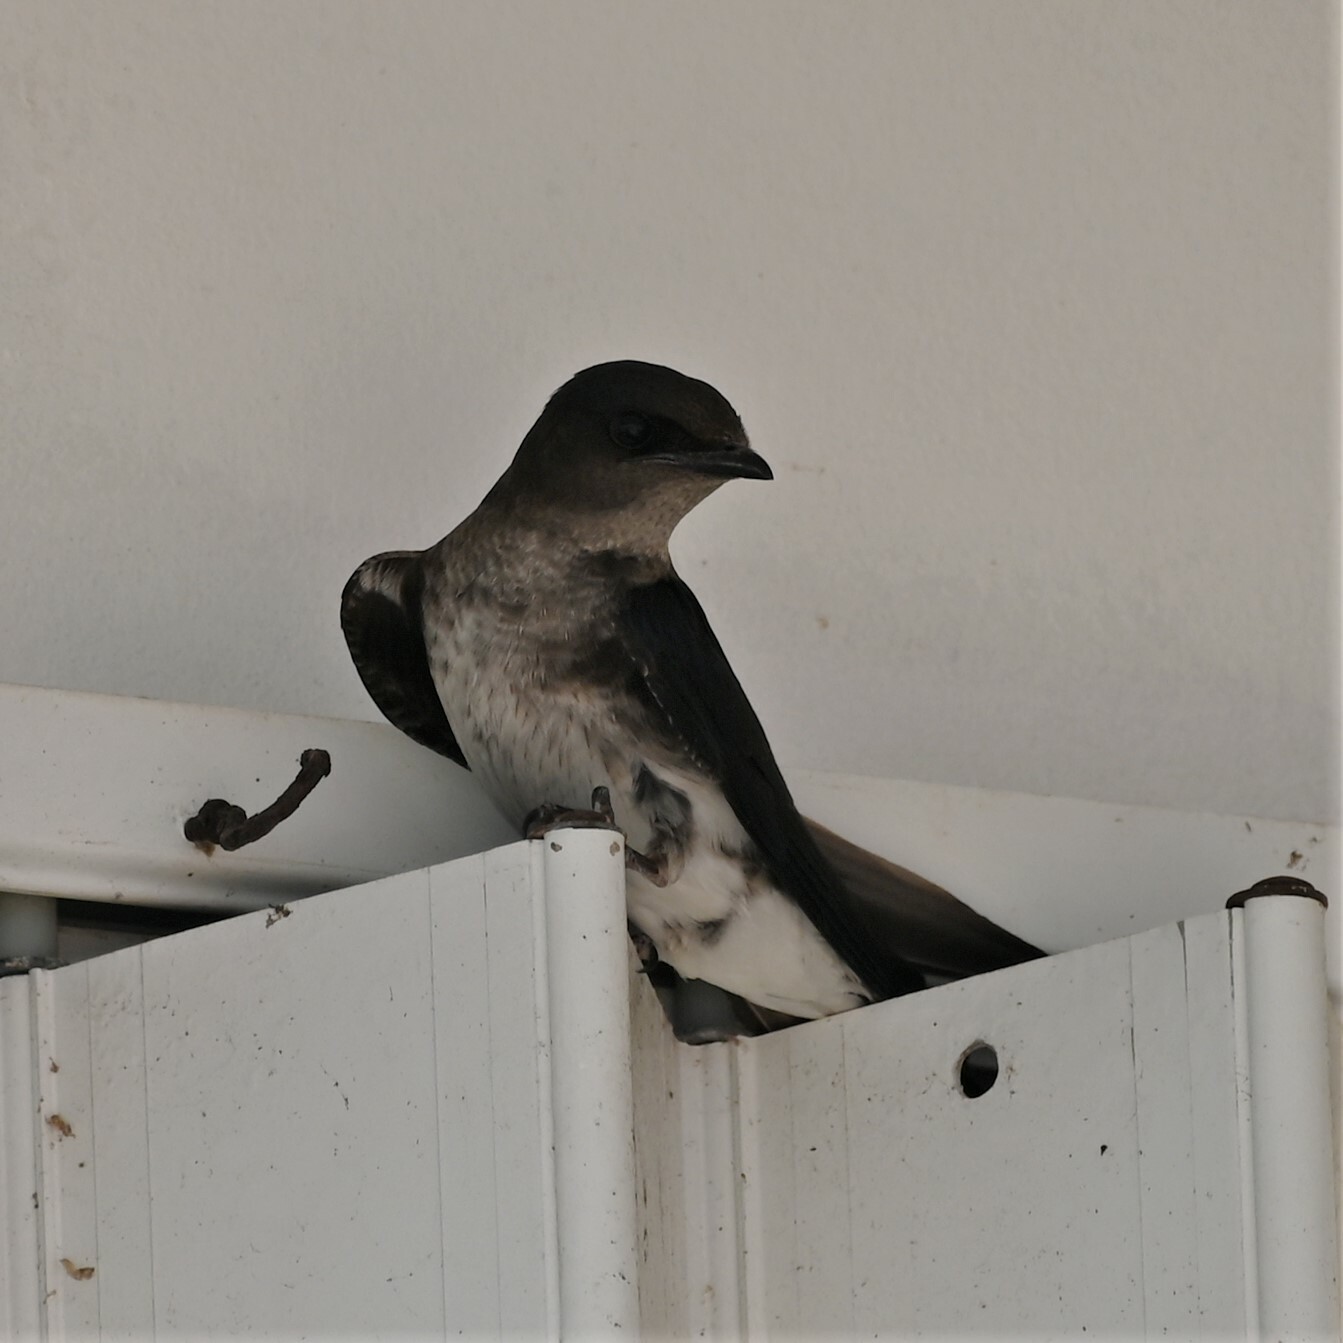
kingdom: Animalia
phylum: Chordata
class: Aves
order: Passeriformes
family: Hirundinidae
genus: Progne
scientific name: Progne chalybea
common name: Grey-breasted martin
